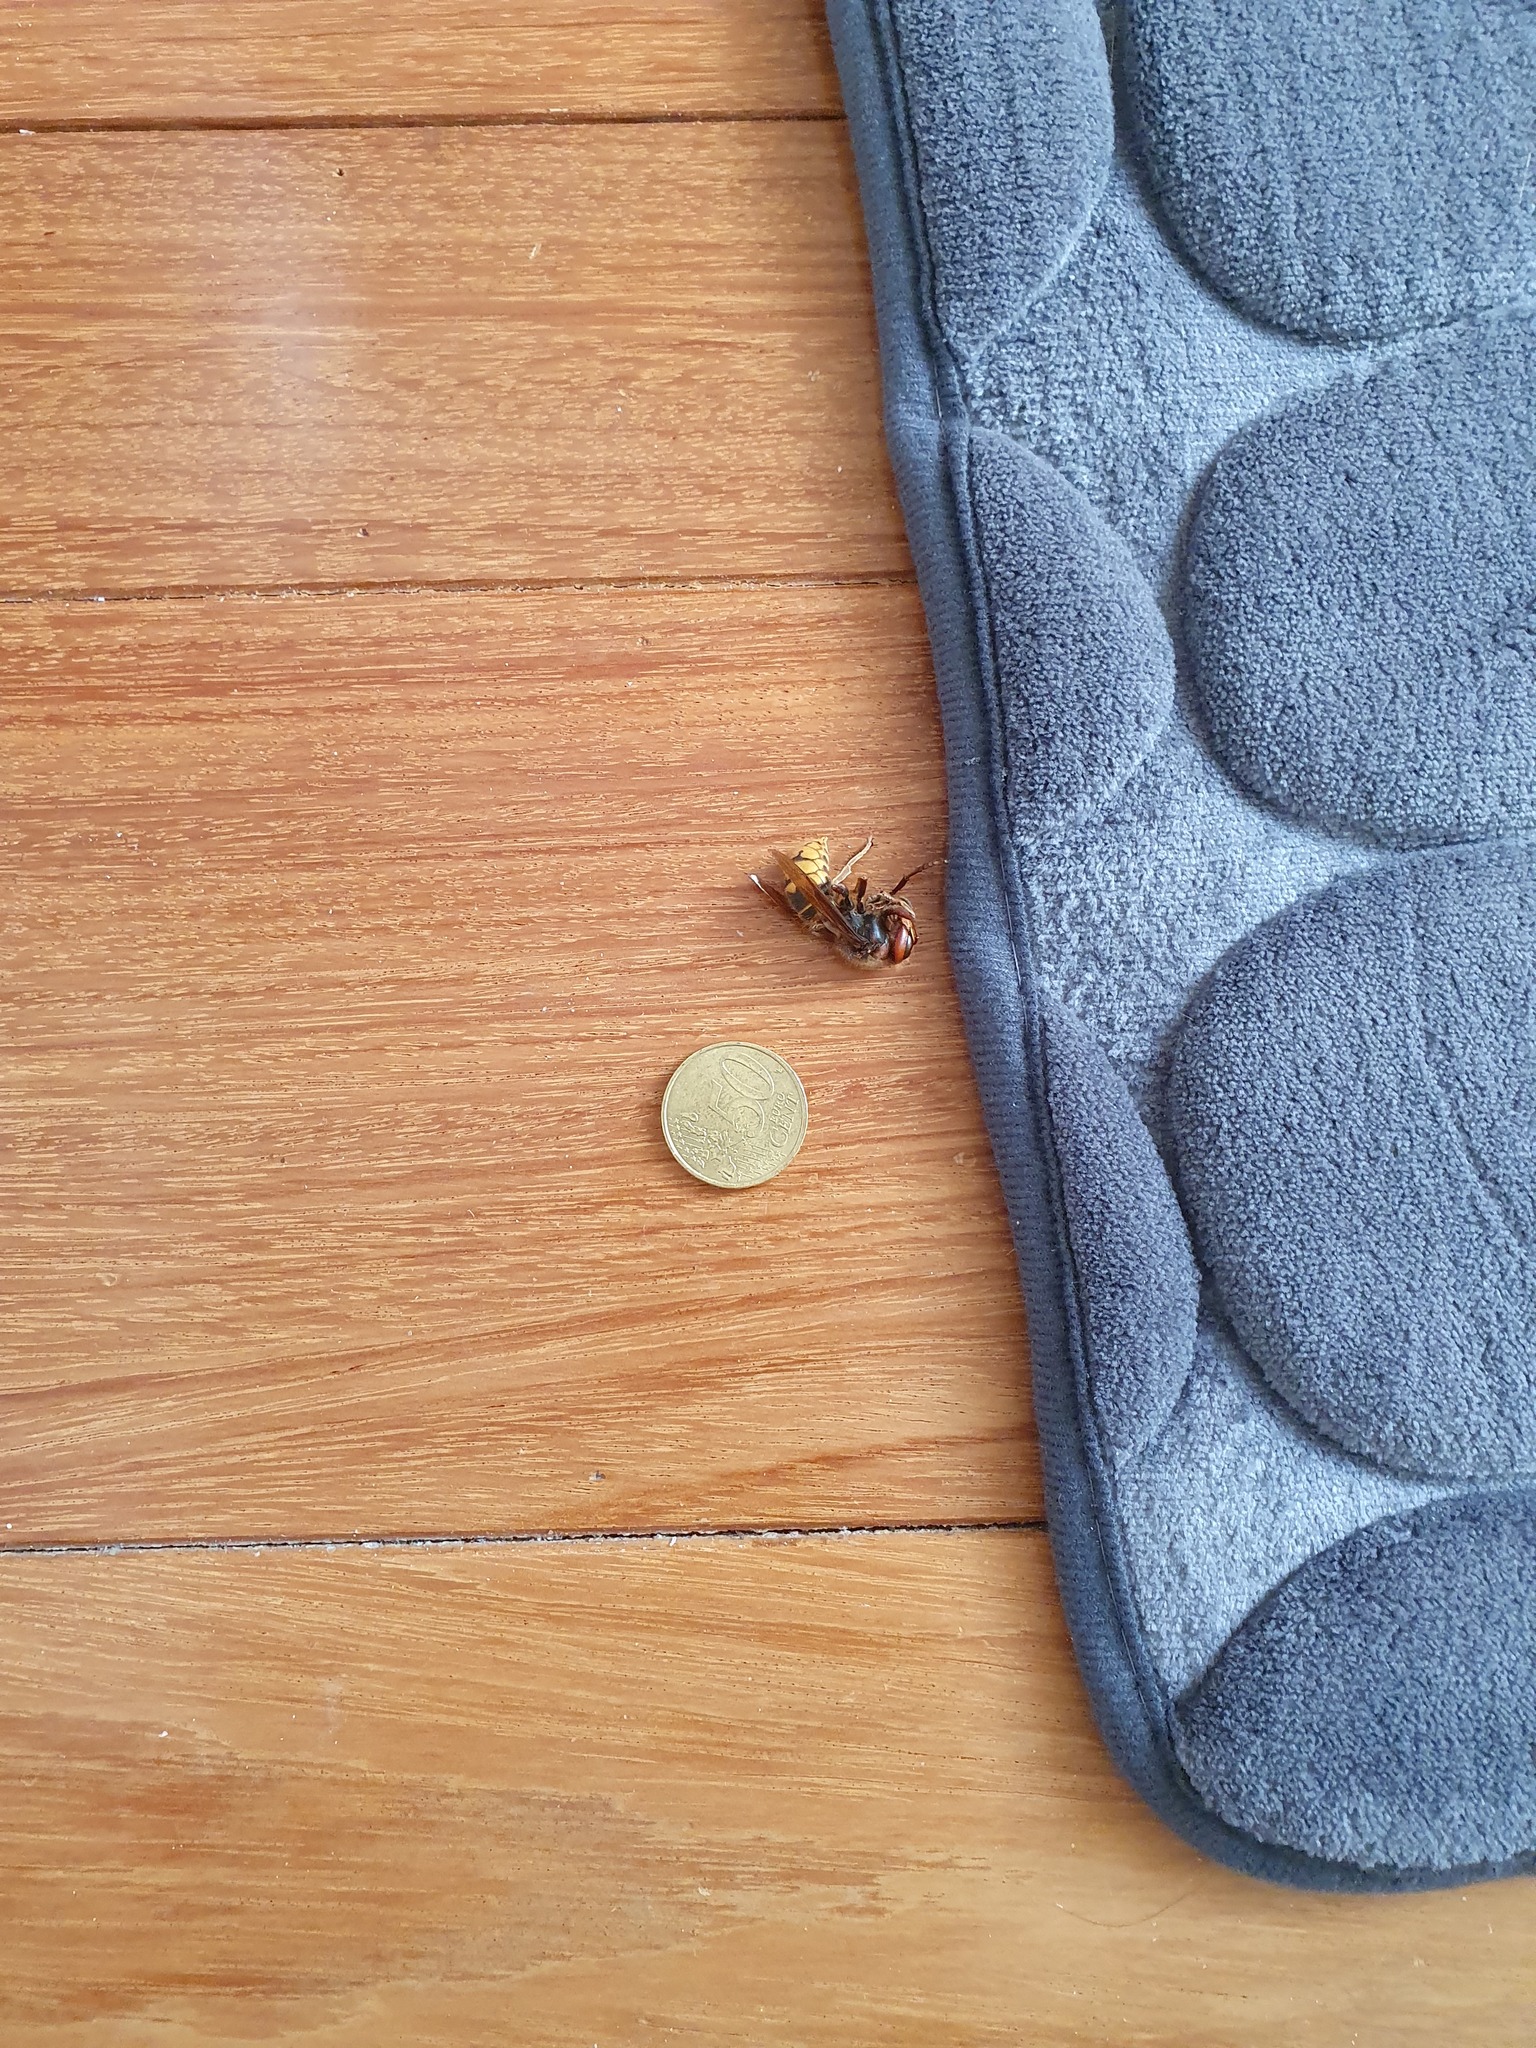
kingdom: Animalia
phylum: Arthropoda
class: Insecta
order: Hymenoptera
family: Vespidae
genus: Vespa
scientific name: Vespa crabro
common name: Hornet
